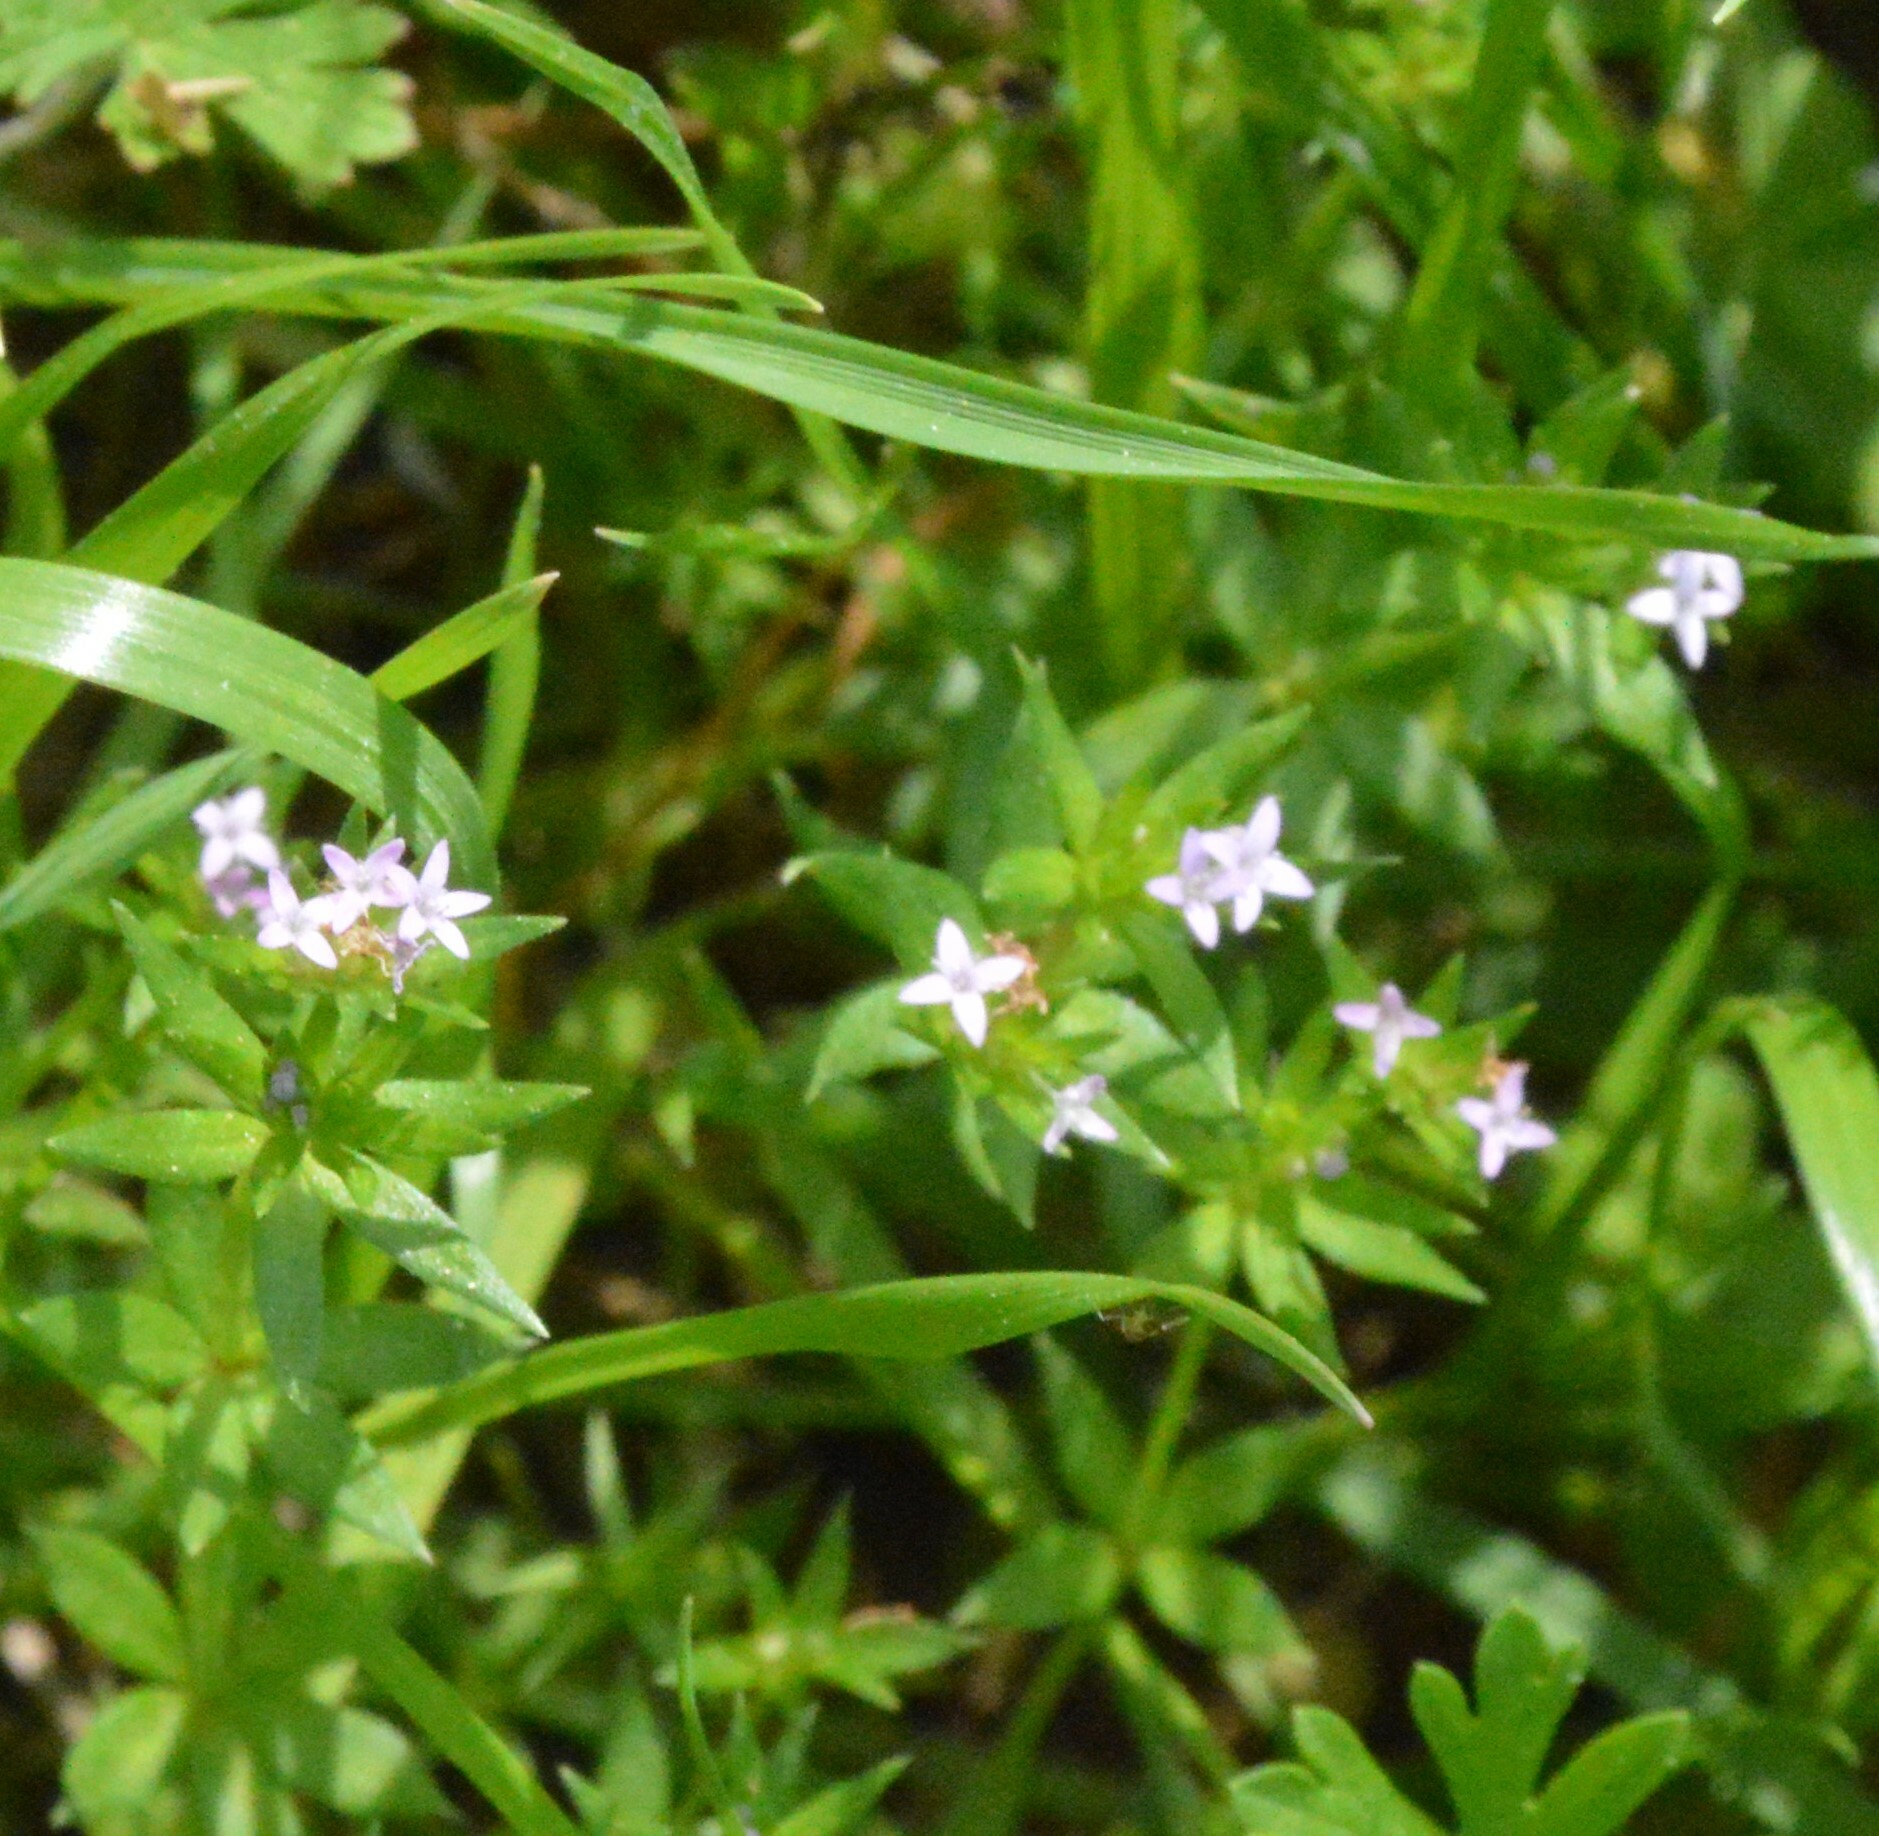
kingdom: Plantae
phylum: Tracheophyta
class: Magnoliopsida
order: Gentianales
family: Rubiaceae
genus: Sherardia
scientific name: Sherardia arvensis
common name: Field madder
